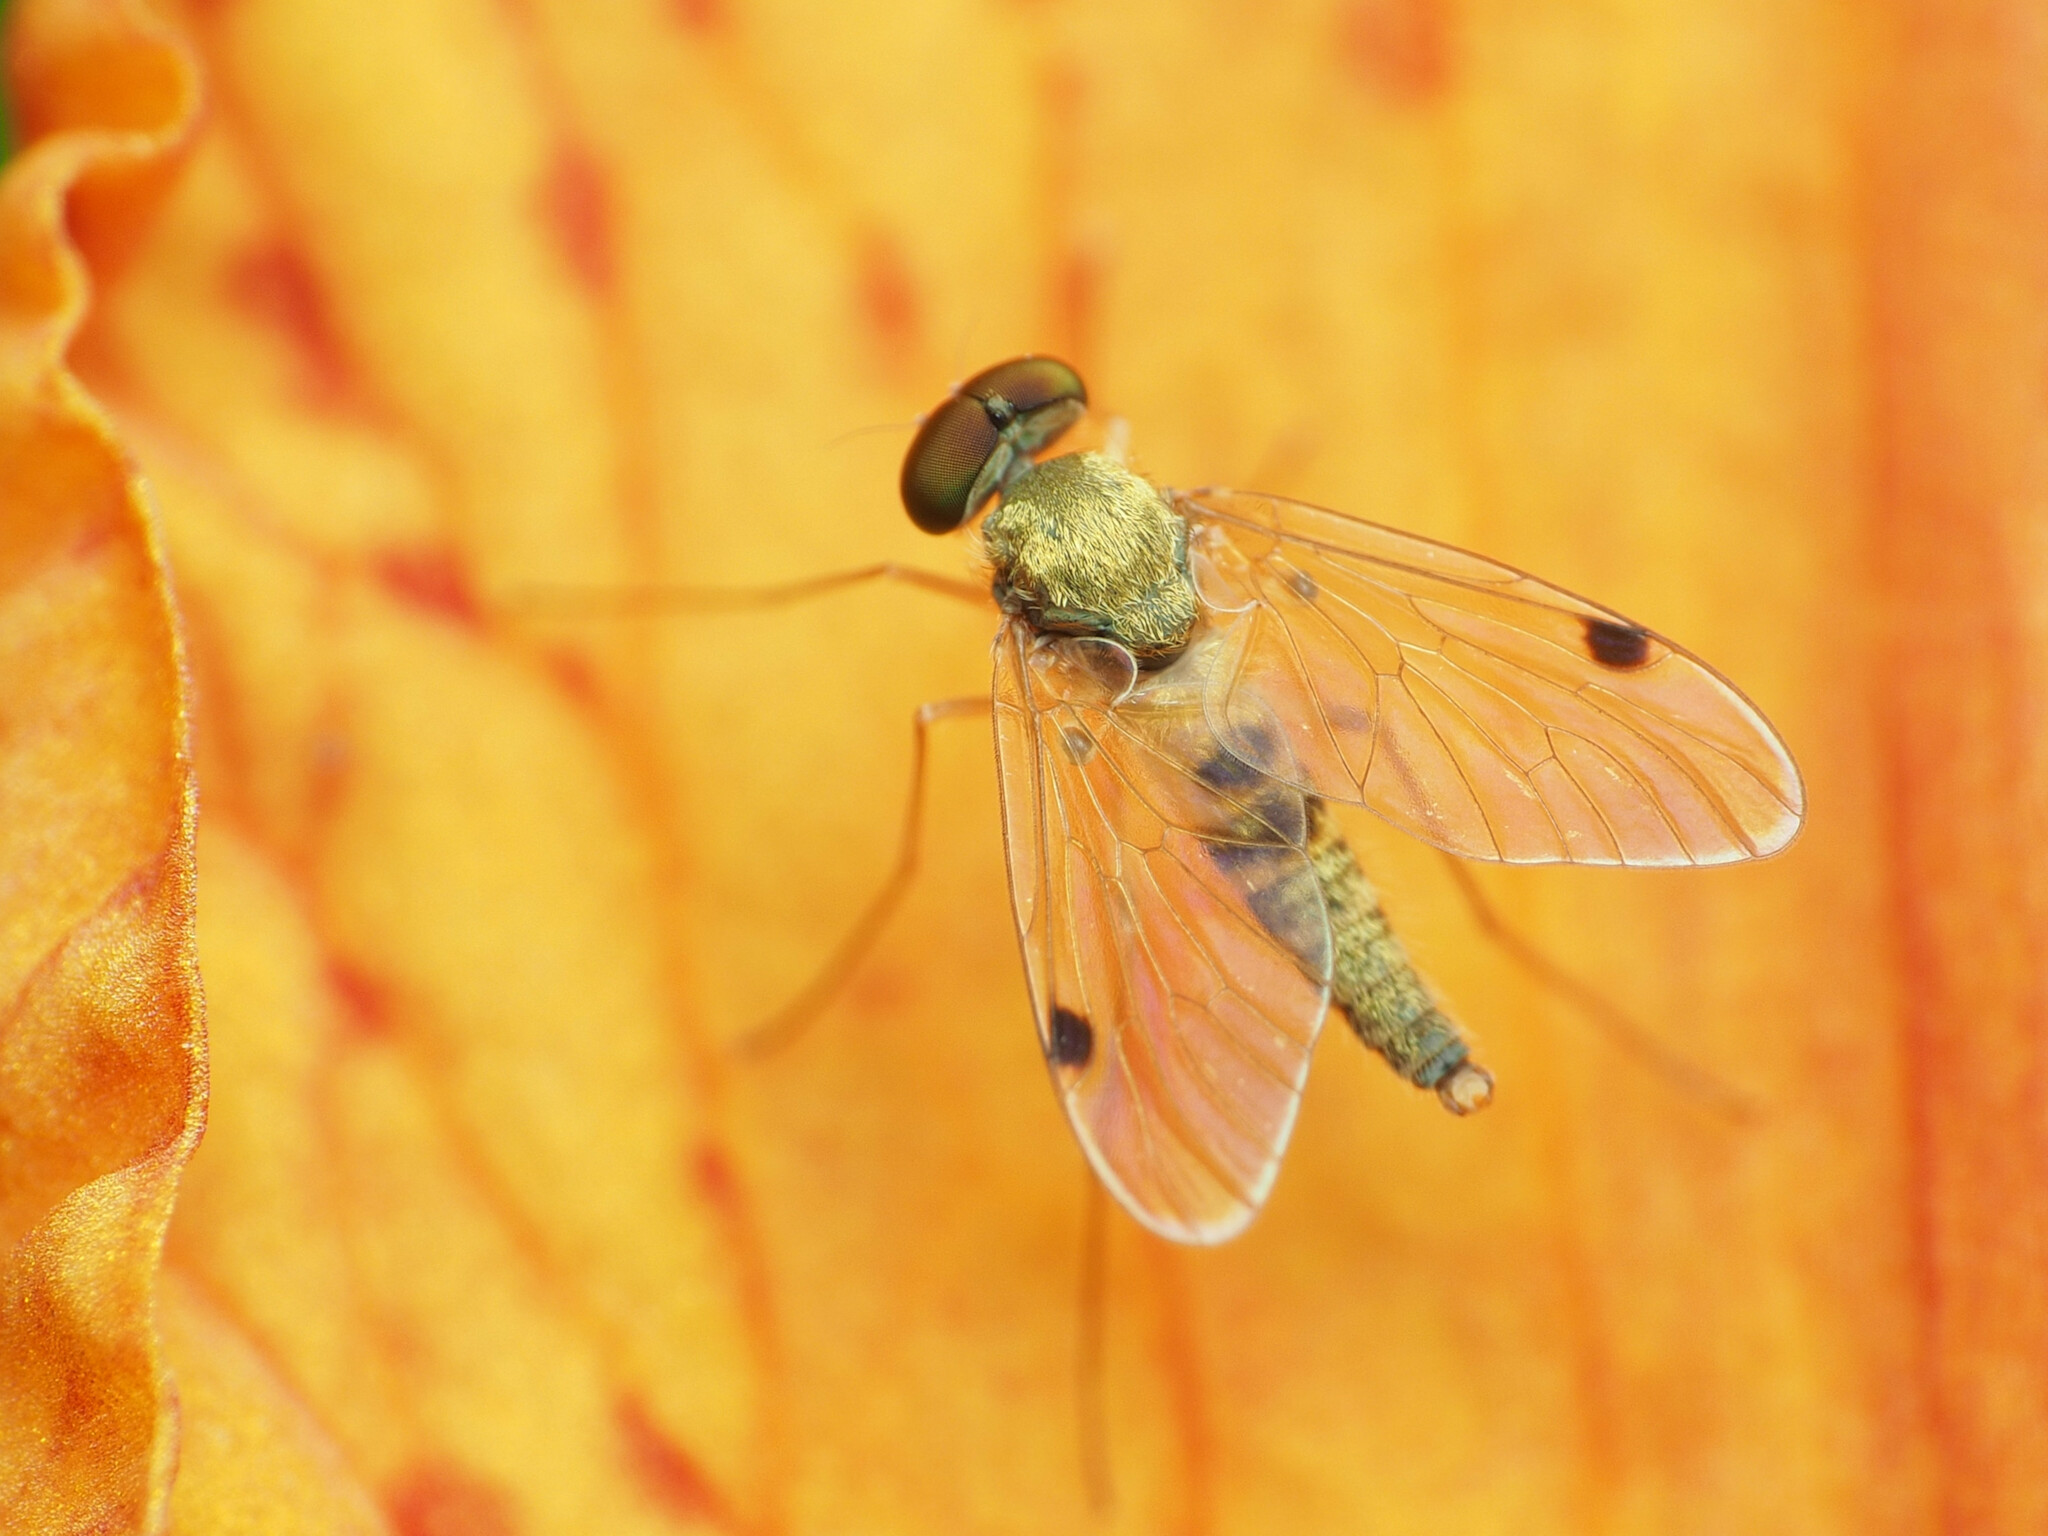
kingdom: Animalia
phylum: Arthropoda
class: Insecta
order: Diptera
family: Rhagionidae
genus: Chrysopilus
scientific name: Chrysopilus modestus
